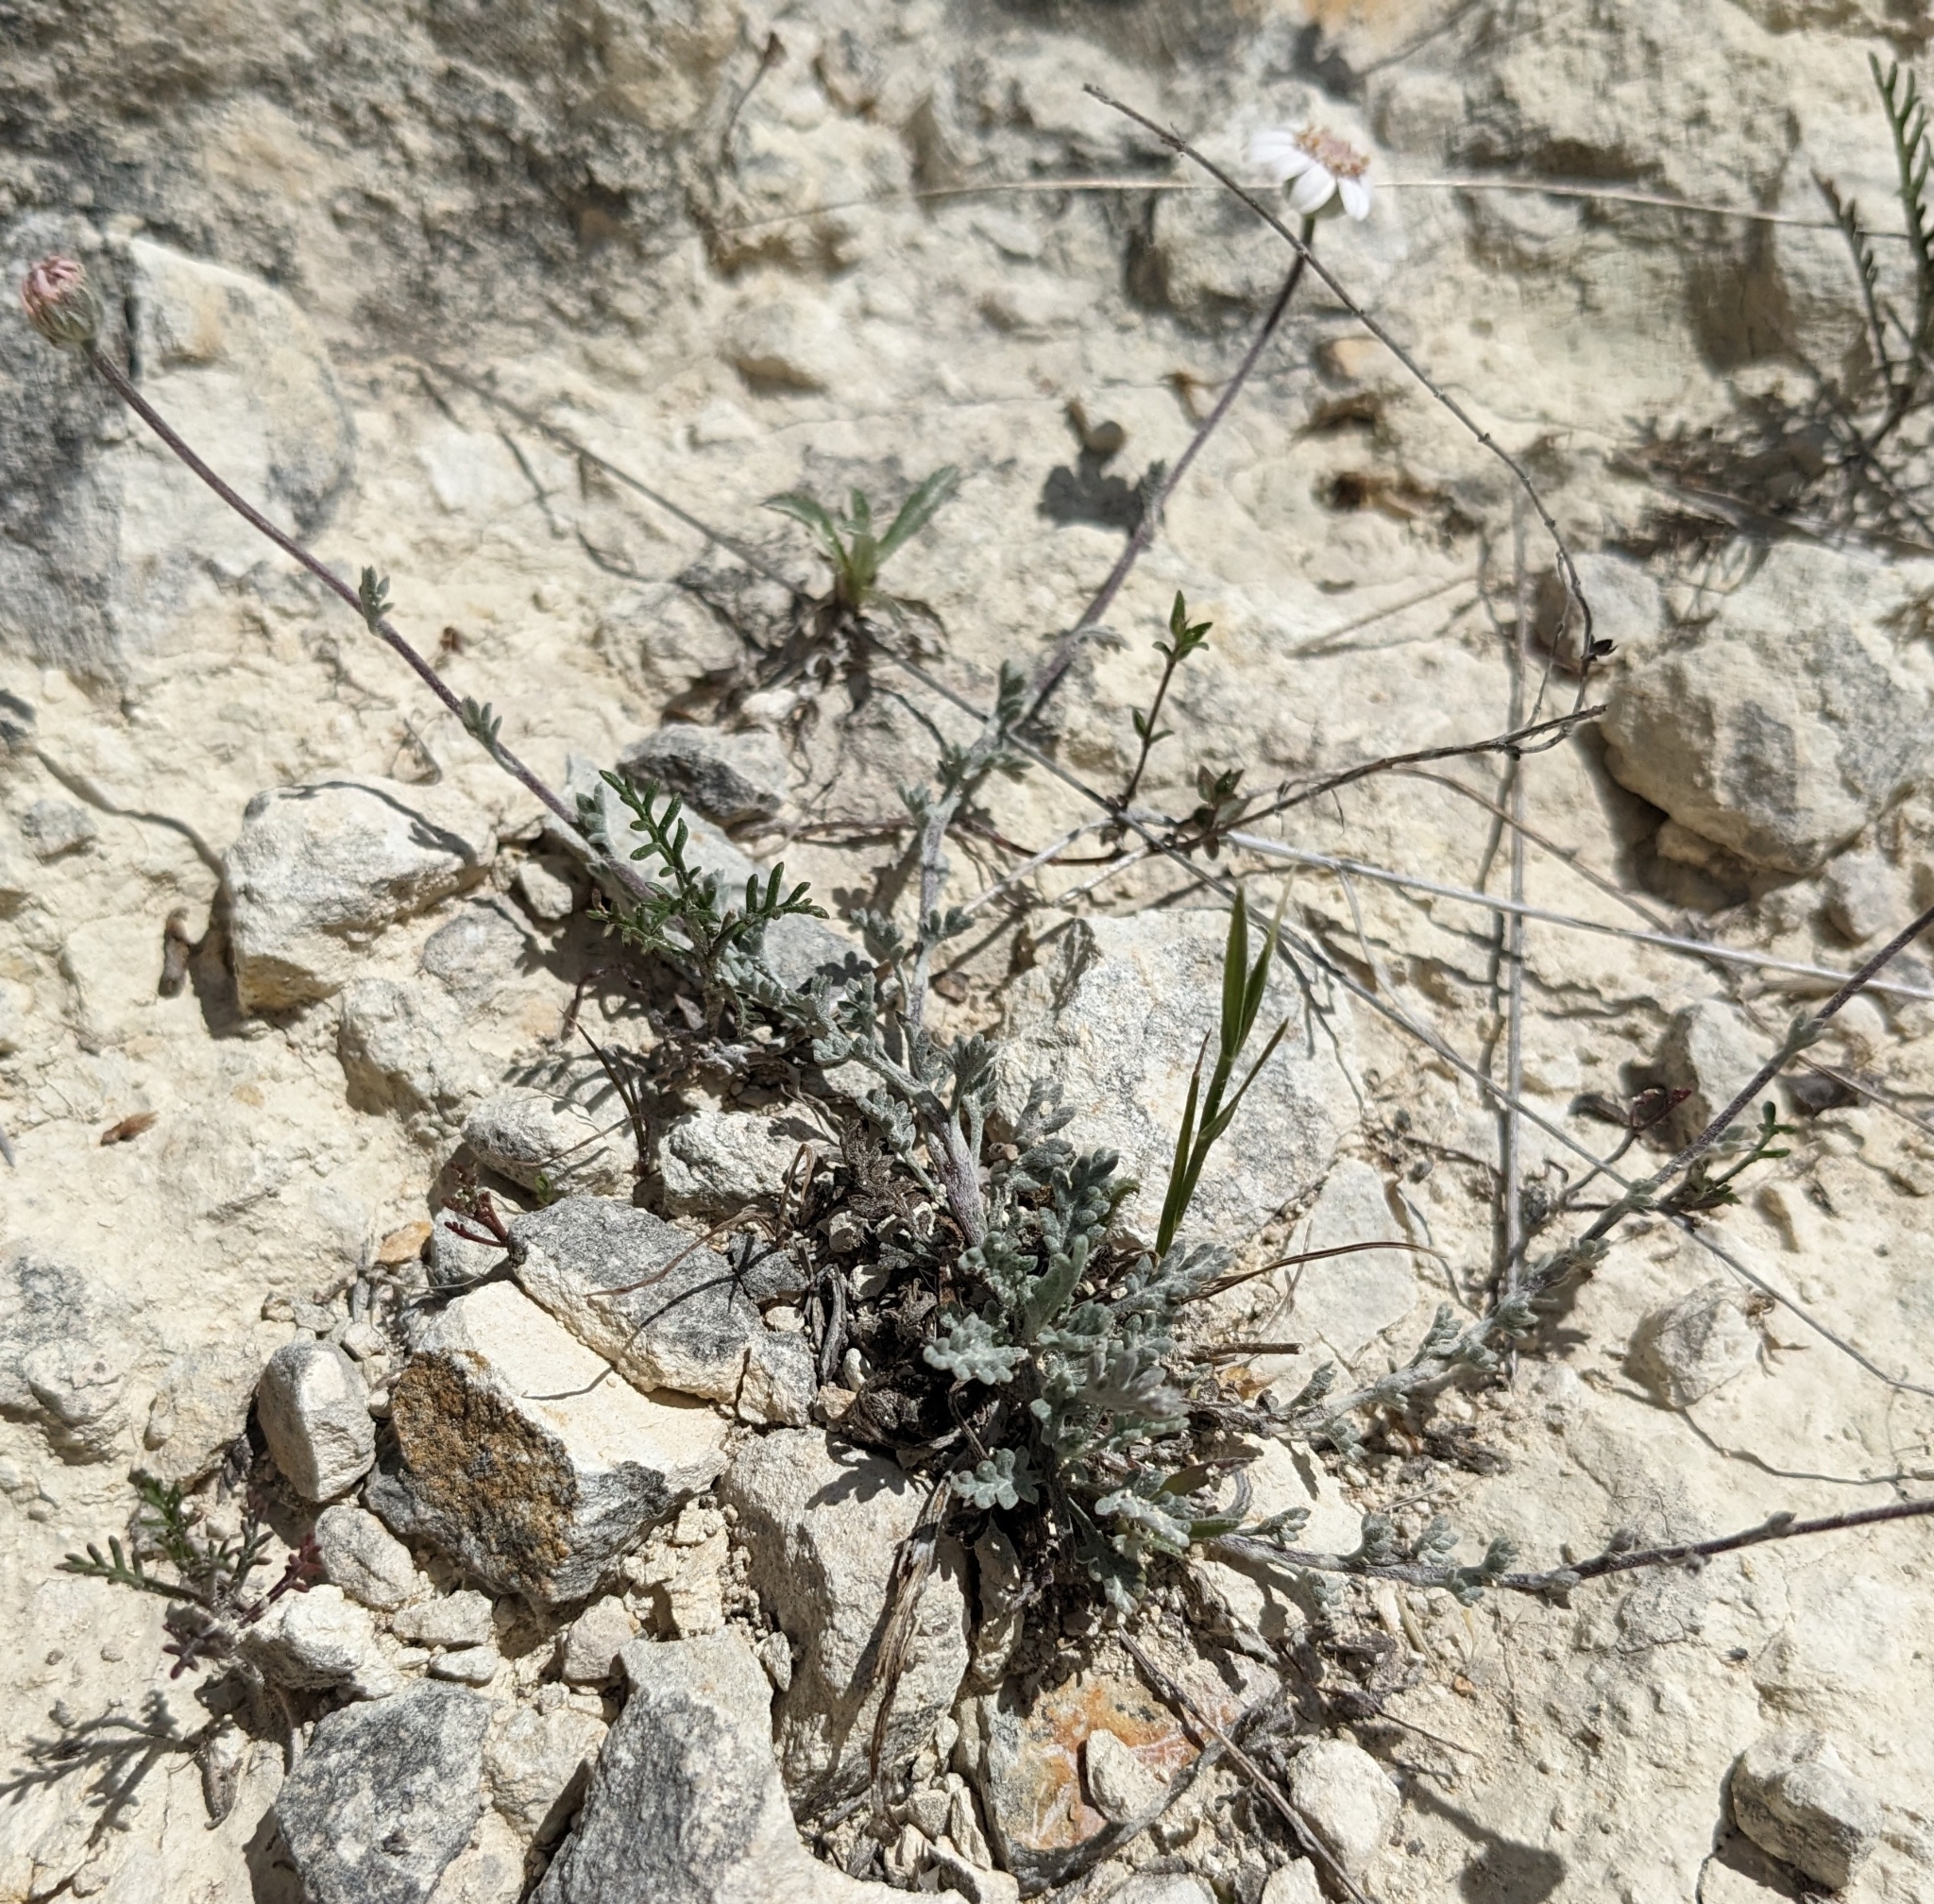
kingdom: Plantae
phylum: Tracheophyta
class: Magnoliopsida
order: Asterales
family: Asteraceae
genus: Anthemis
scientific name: Anthemis tricolor
